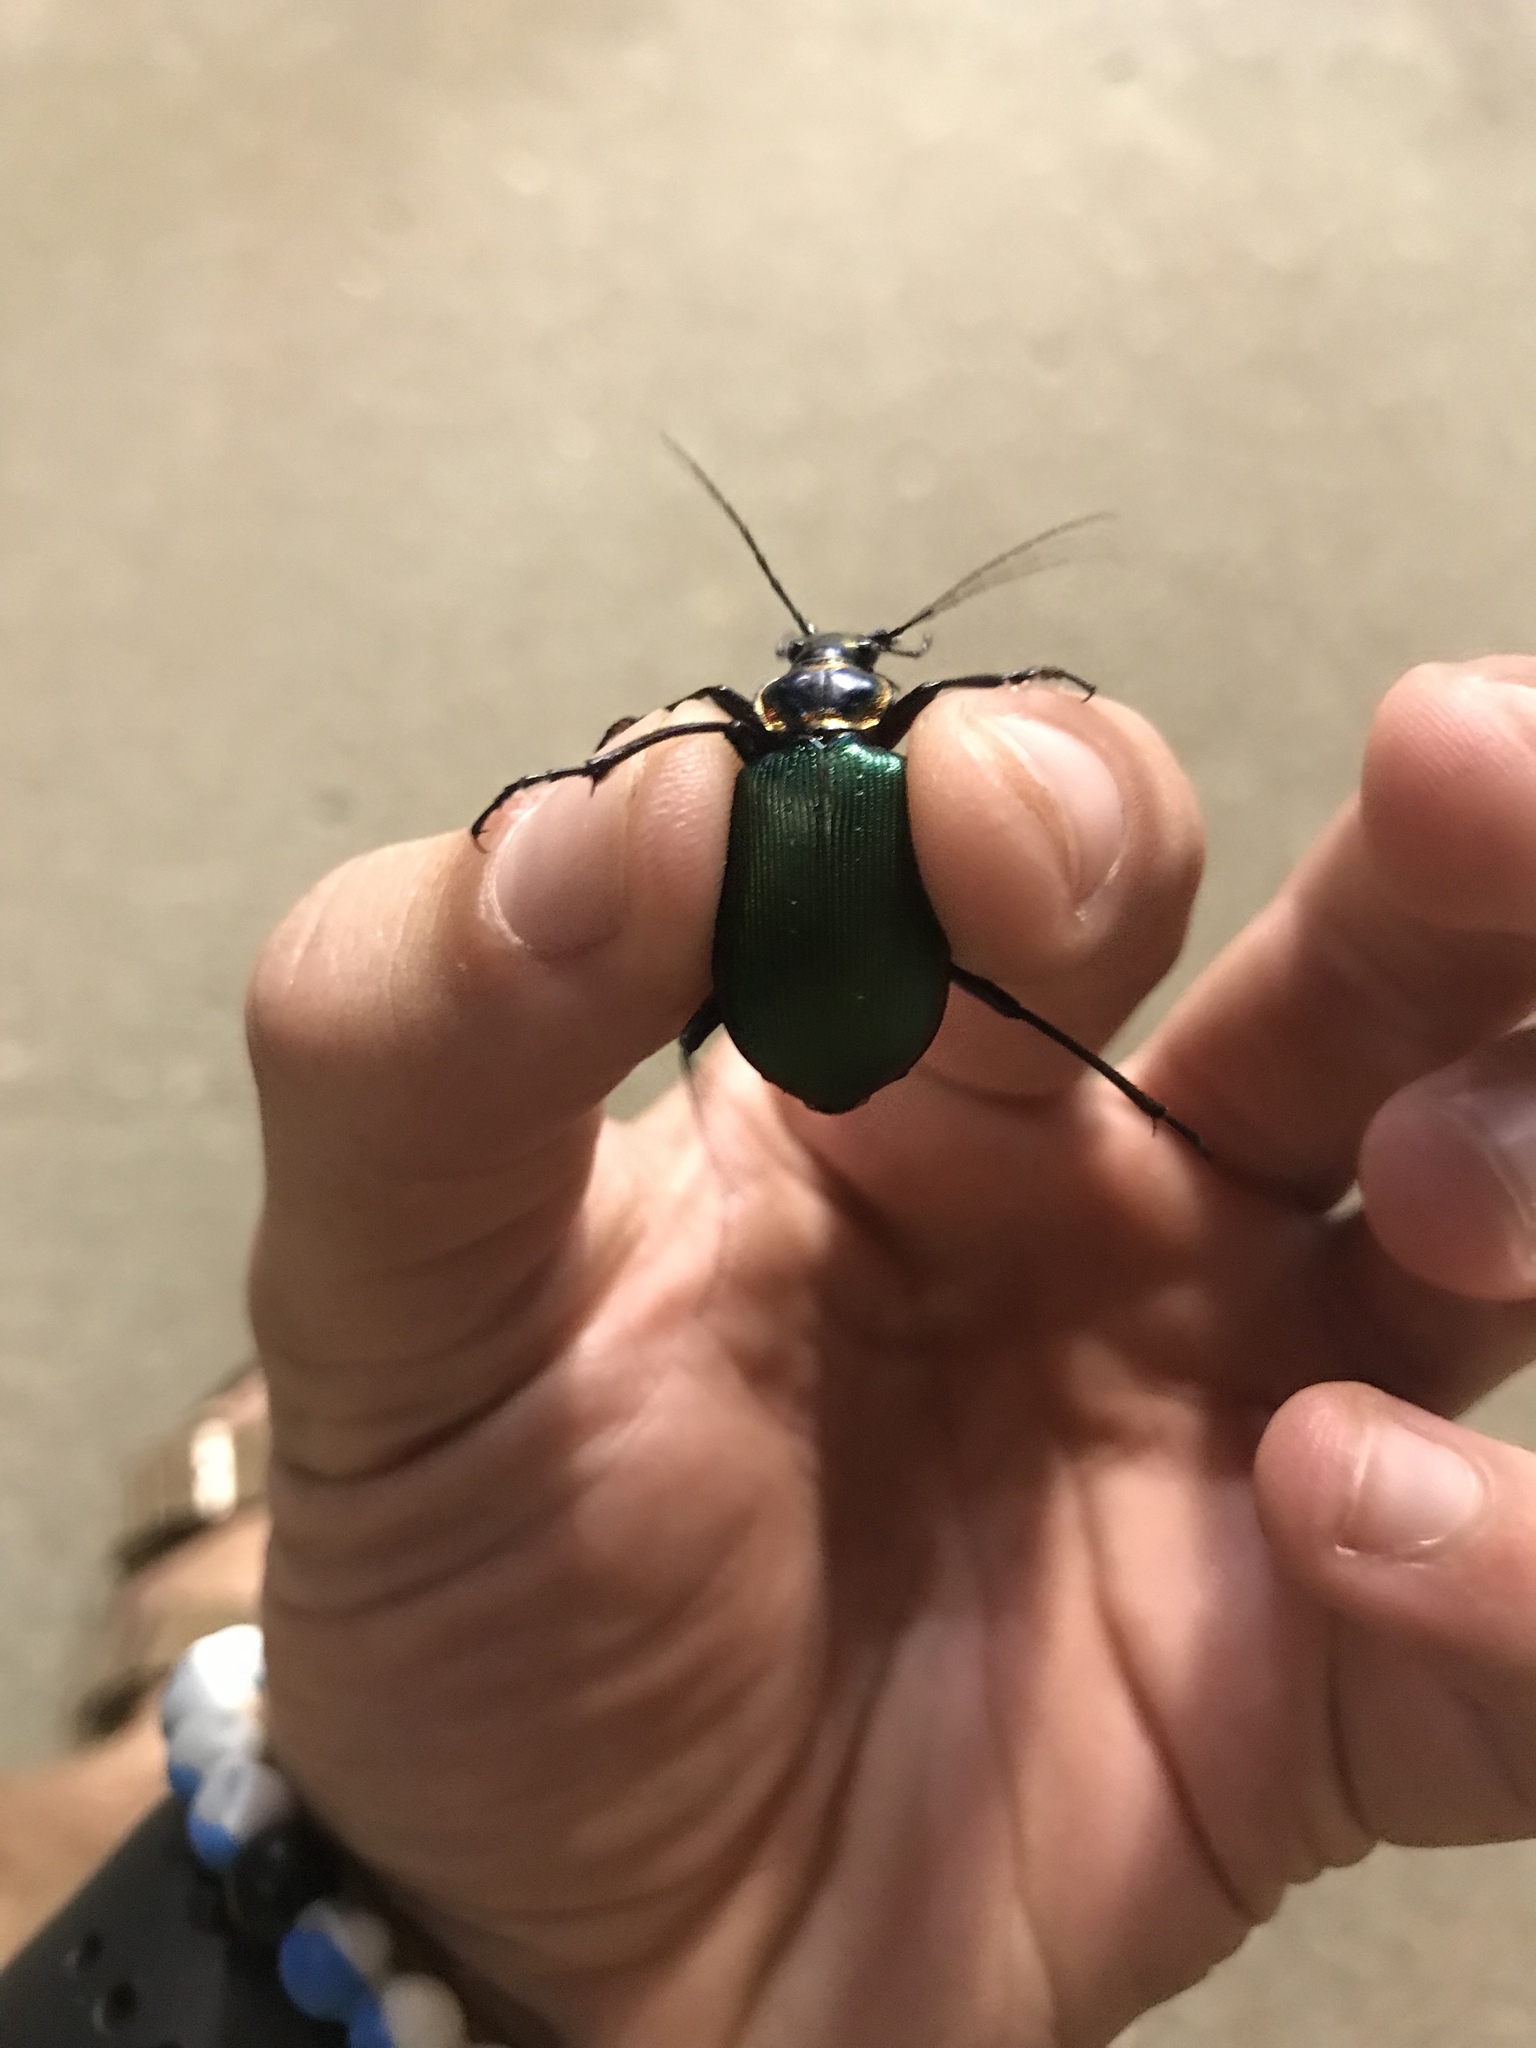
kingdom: Animalia
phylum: Arthropoda
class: Insecta
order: Coleoptera
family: Carabidae
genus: Calosoma
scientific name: Calosoma scrutator
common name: Fiery searcher beetle
